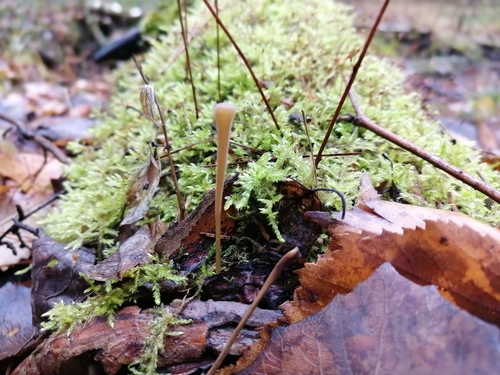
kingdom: Fungi
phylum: Basidiomycota
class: Agaricomycetes
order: Agaricales
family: Typhulaceae
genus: Typhula
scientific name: Typhula fistulosa
